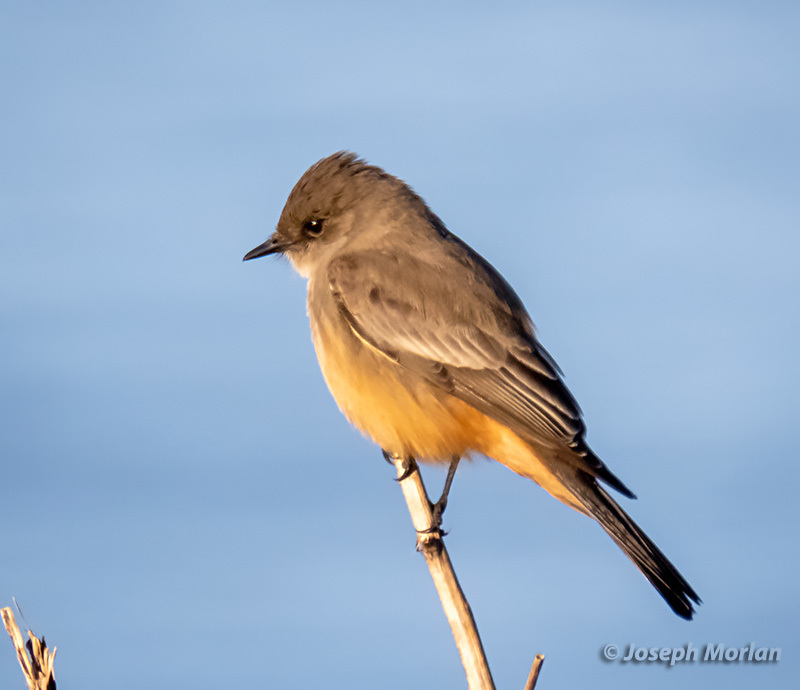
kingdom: Animalia
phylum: Chordata
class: Aves
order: Passeriformes
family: Tyrannidae
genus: Sayornis
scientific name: Sayornis saya
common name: Say's phoebe
